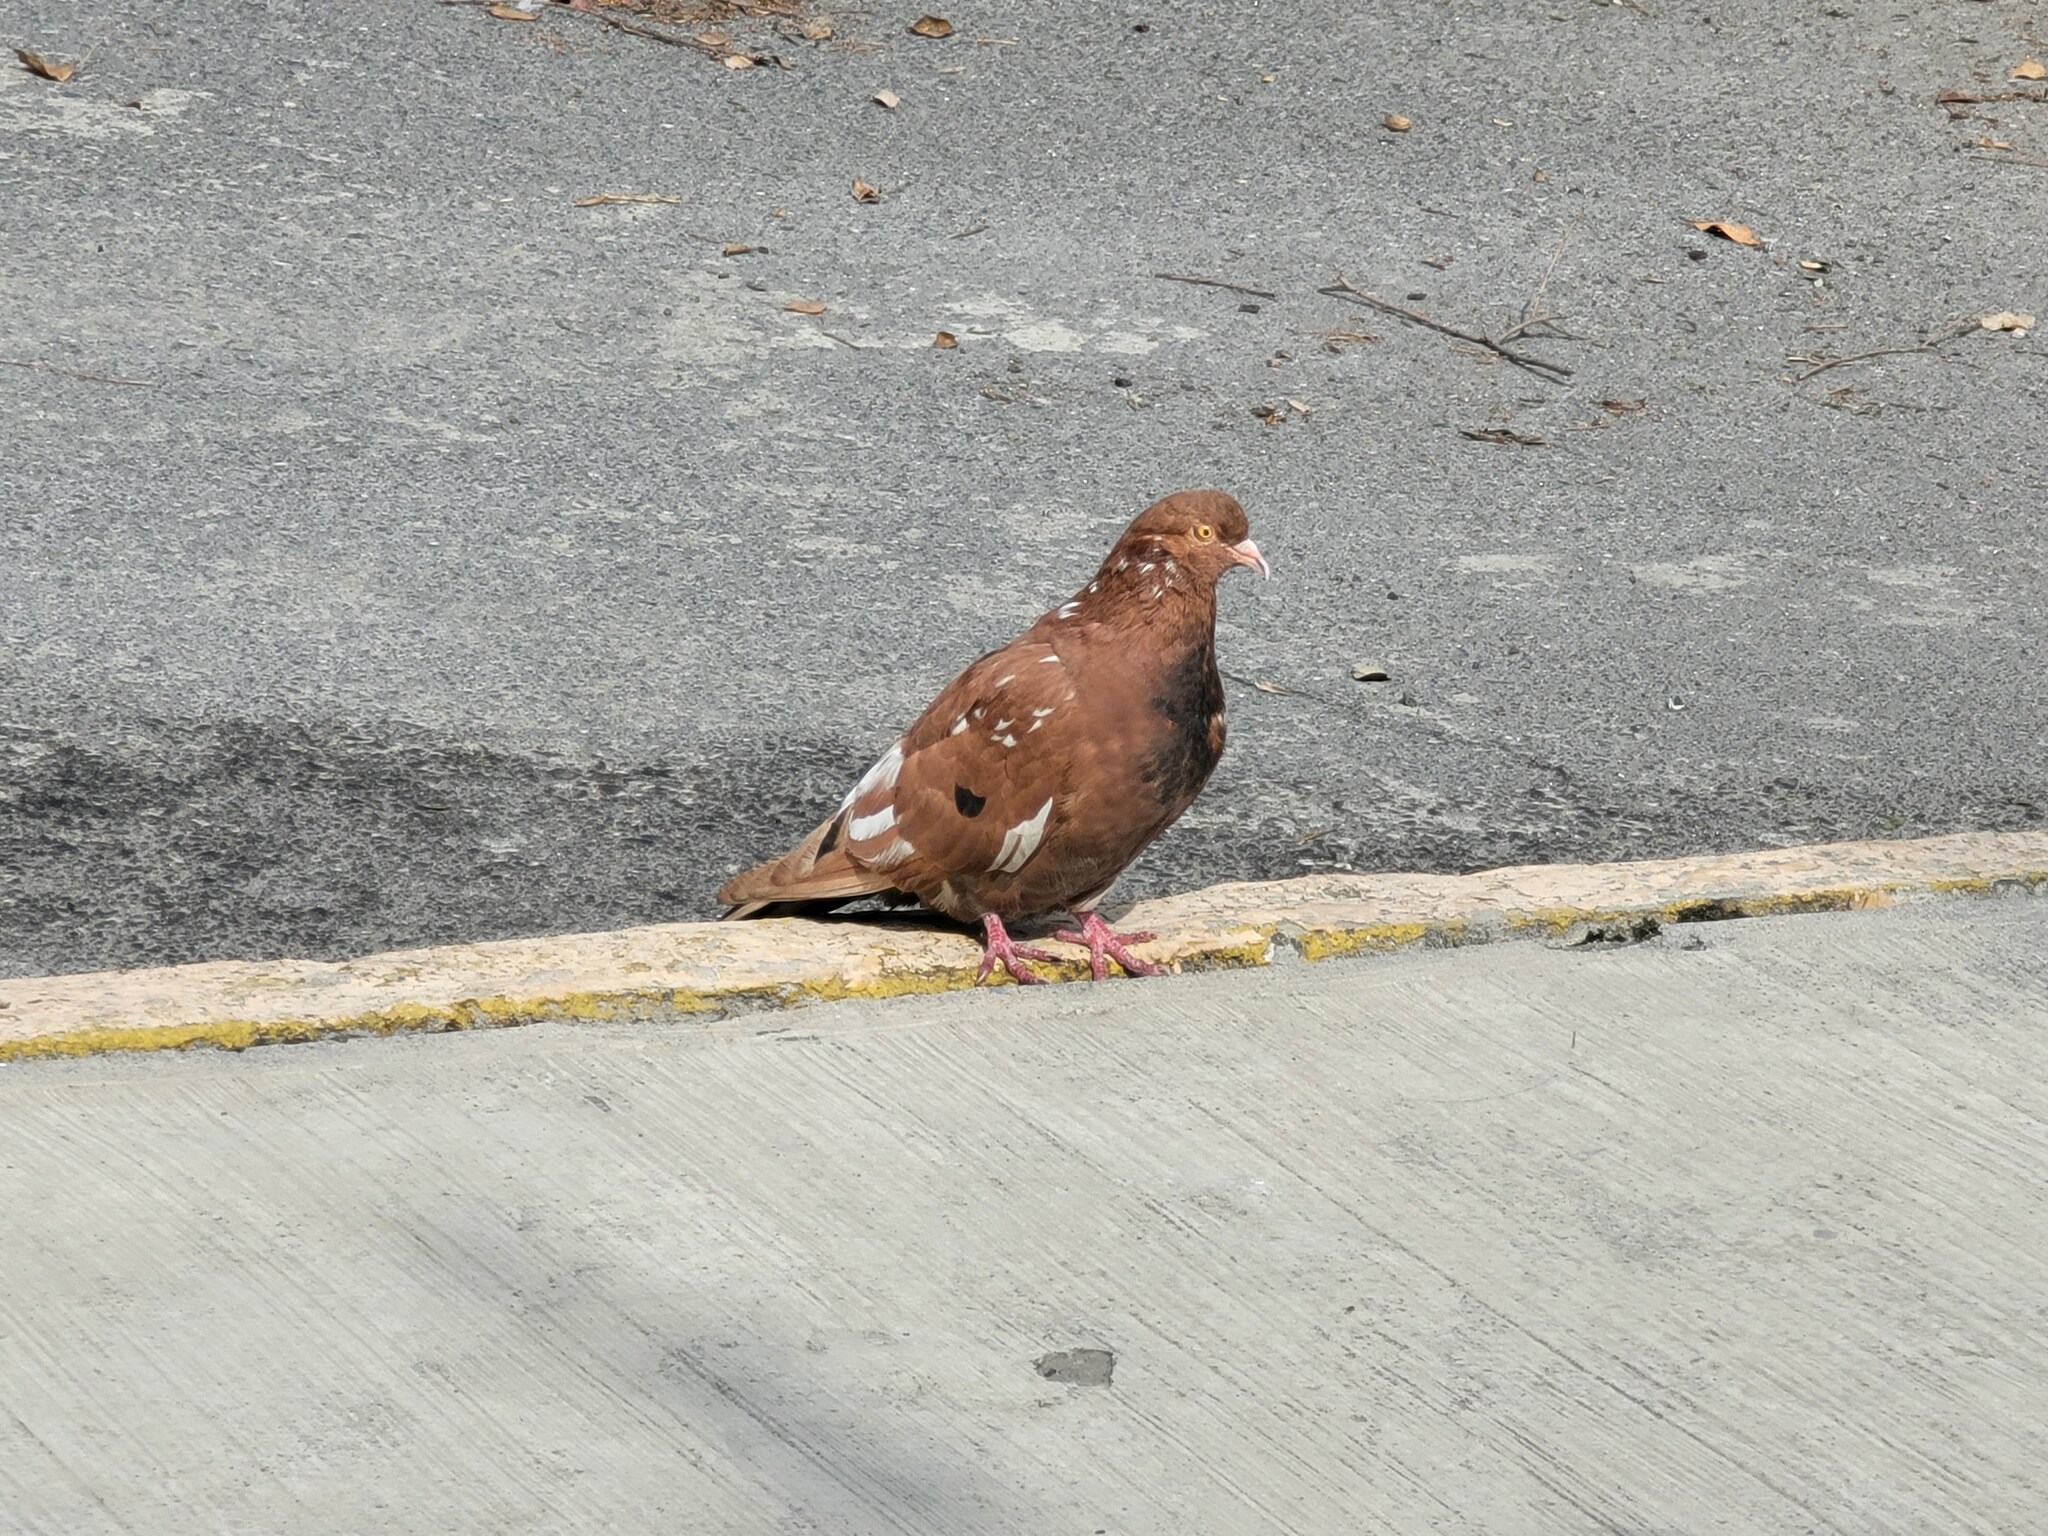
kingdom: Animalia
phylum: Chordata
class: Aves
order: Columbiformes
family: Columbidae
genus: Columba
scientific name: Columba livia
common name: Rock pigeon
